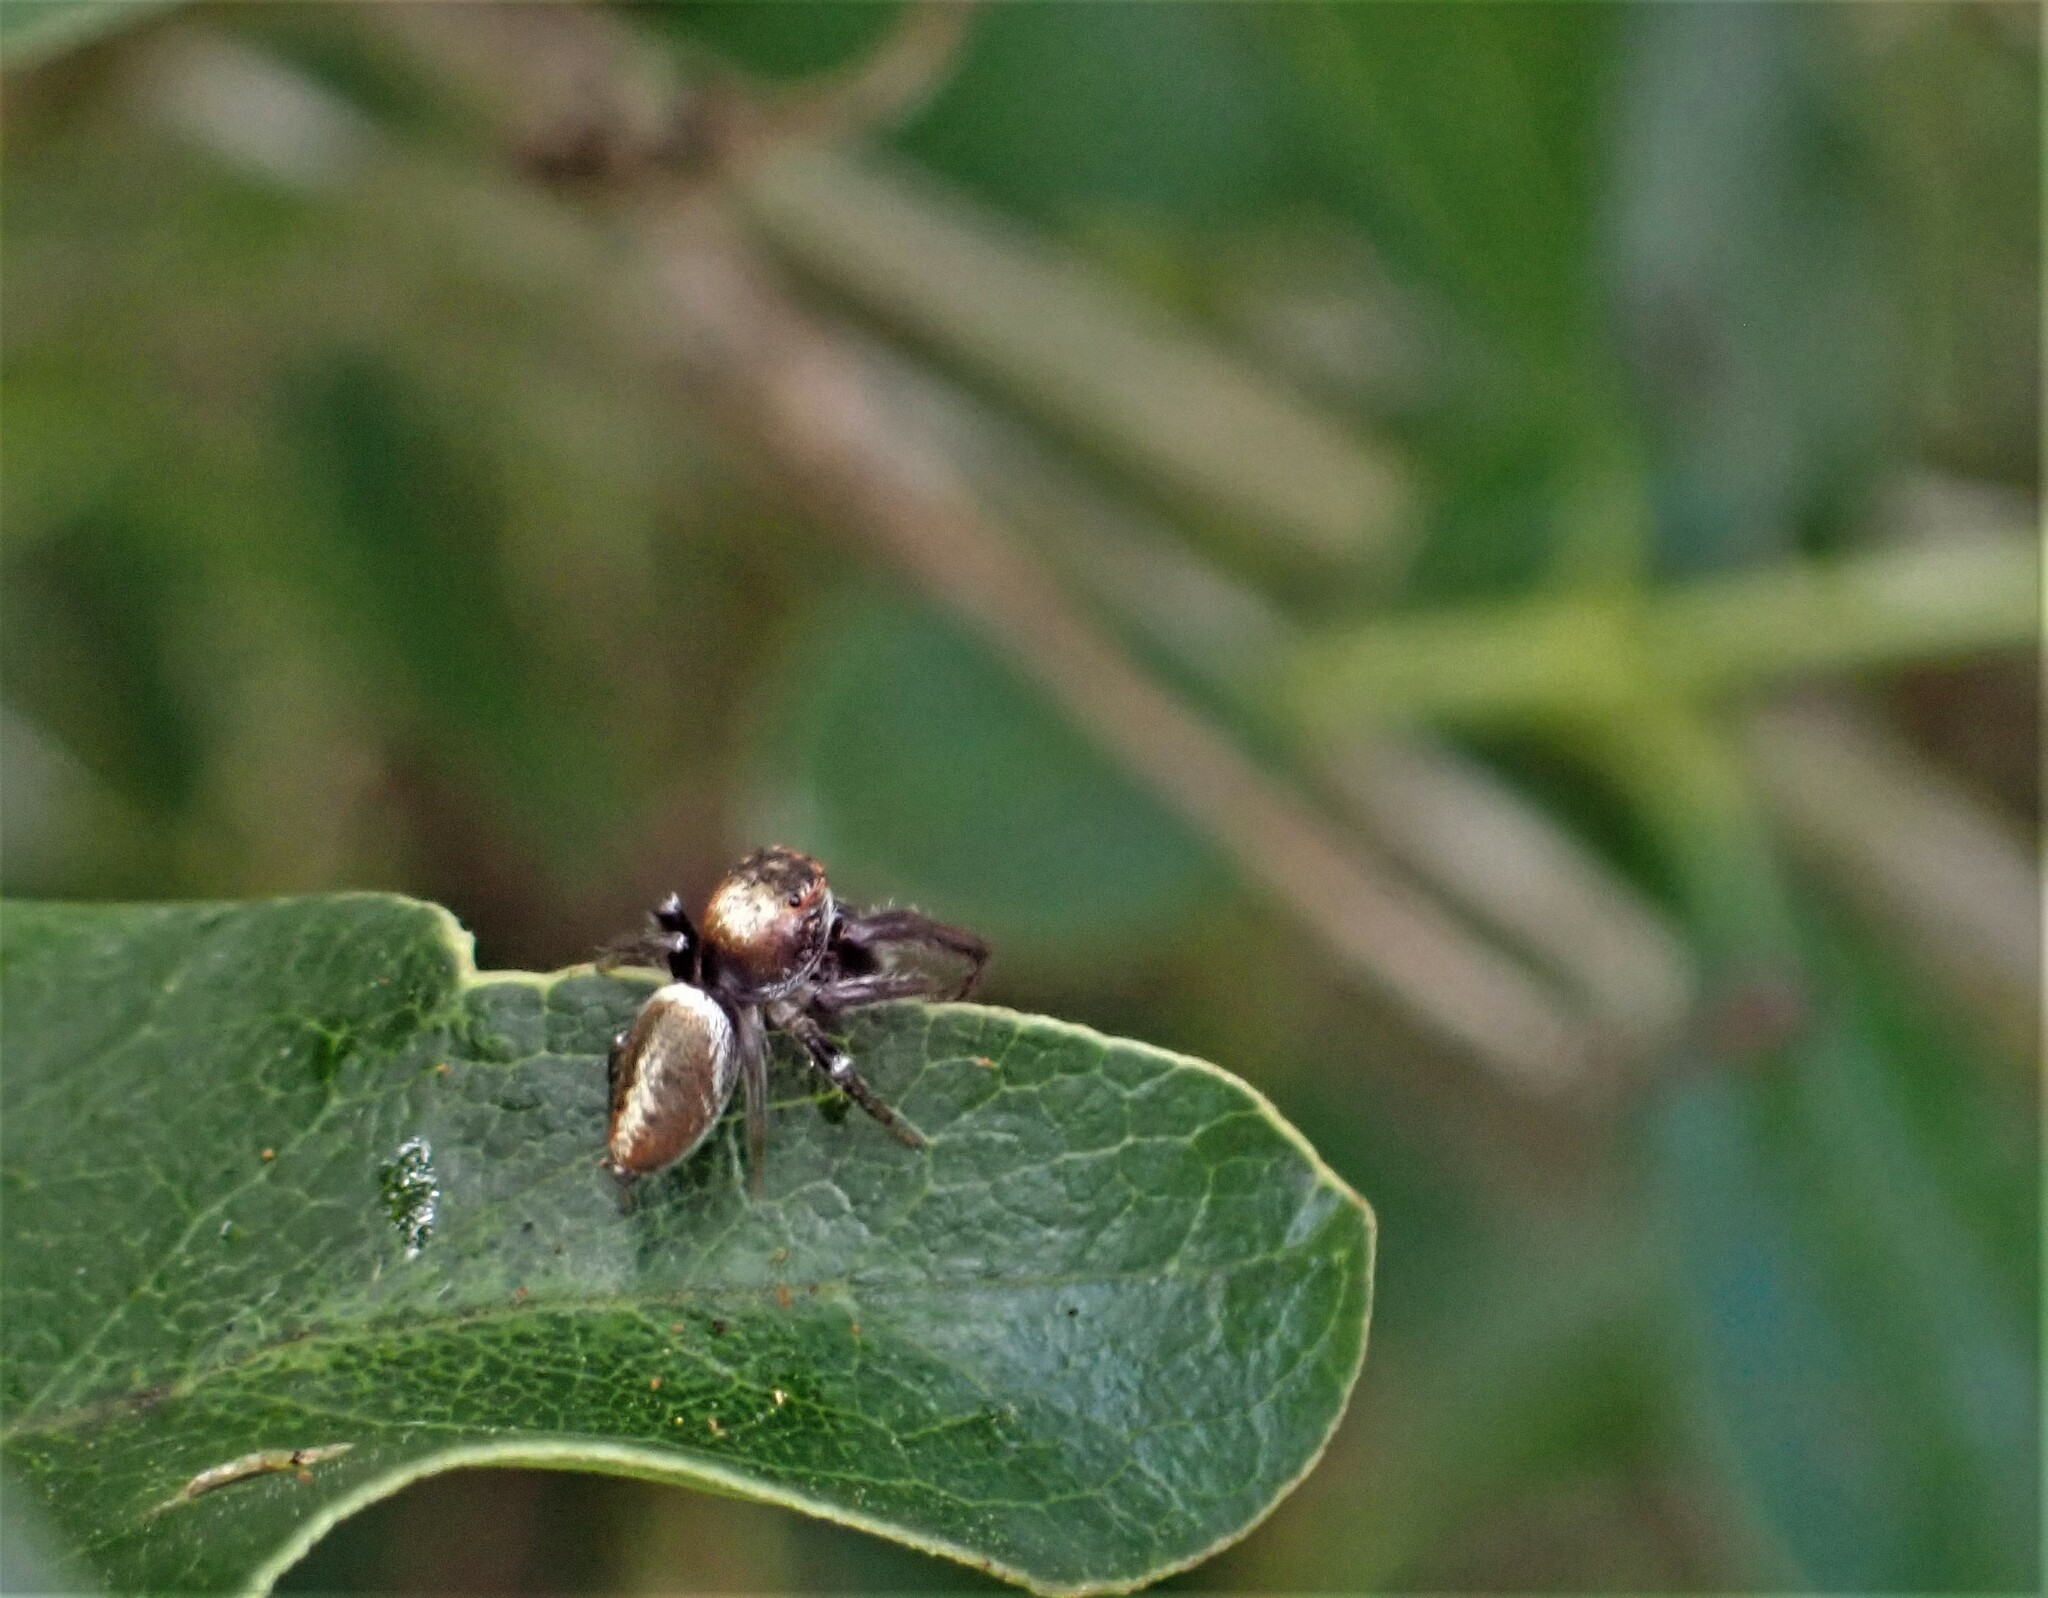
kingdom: Animalia
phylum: Arthropoda
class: Arachnida
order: Araneae
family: Salticidae
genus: Opisthoncus
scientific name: Opisthoncus polyphemus
